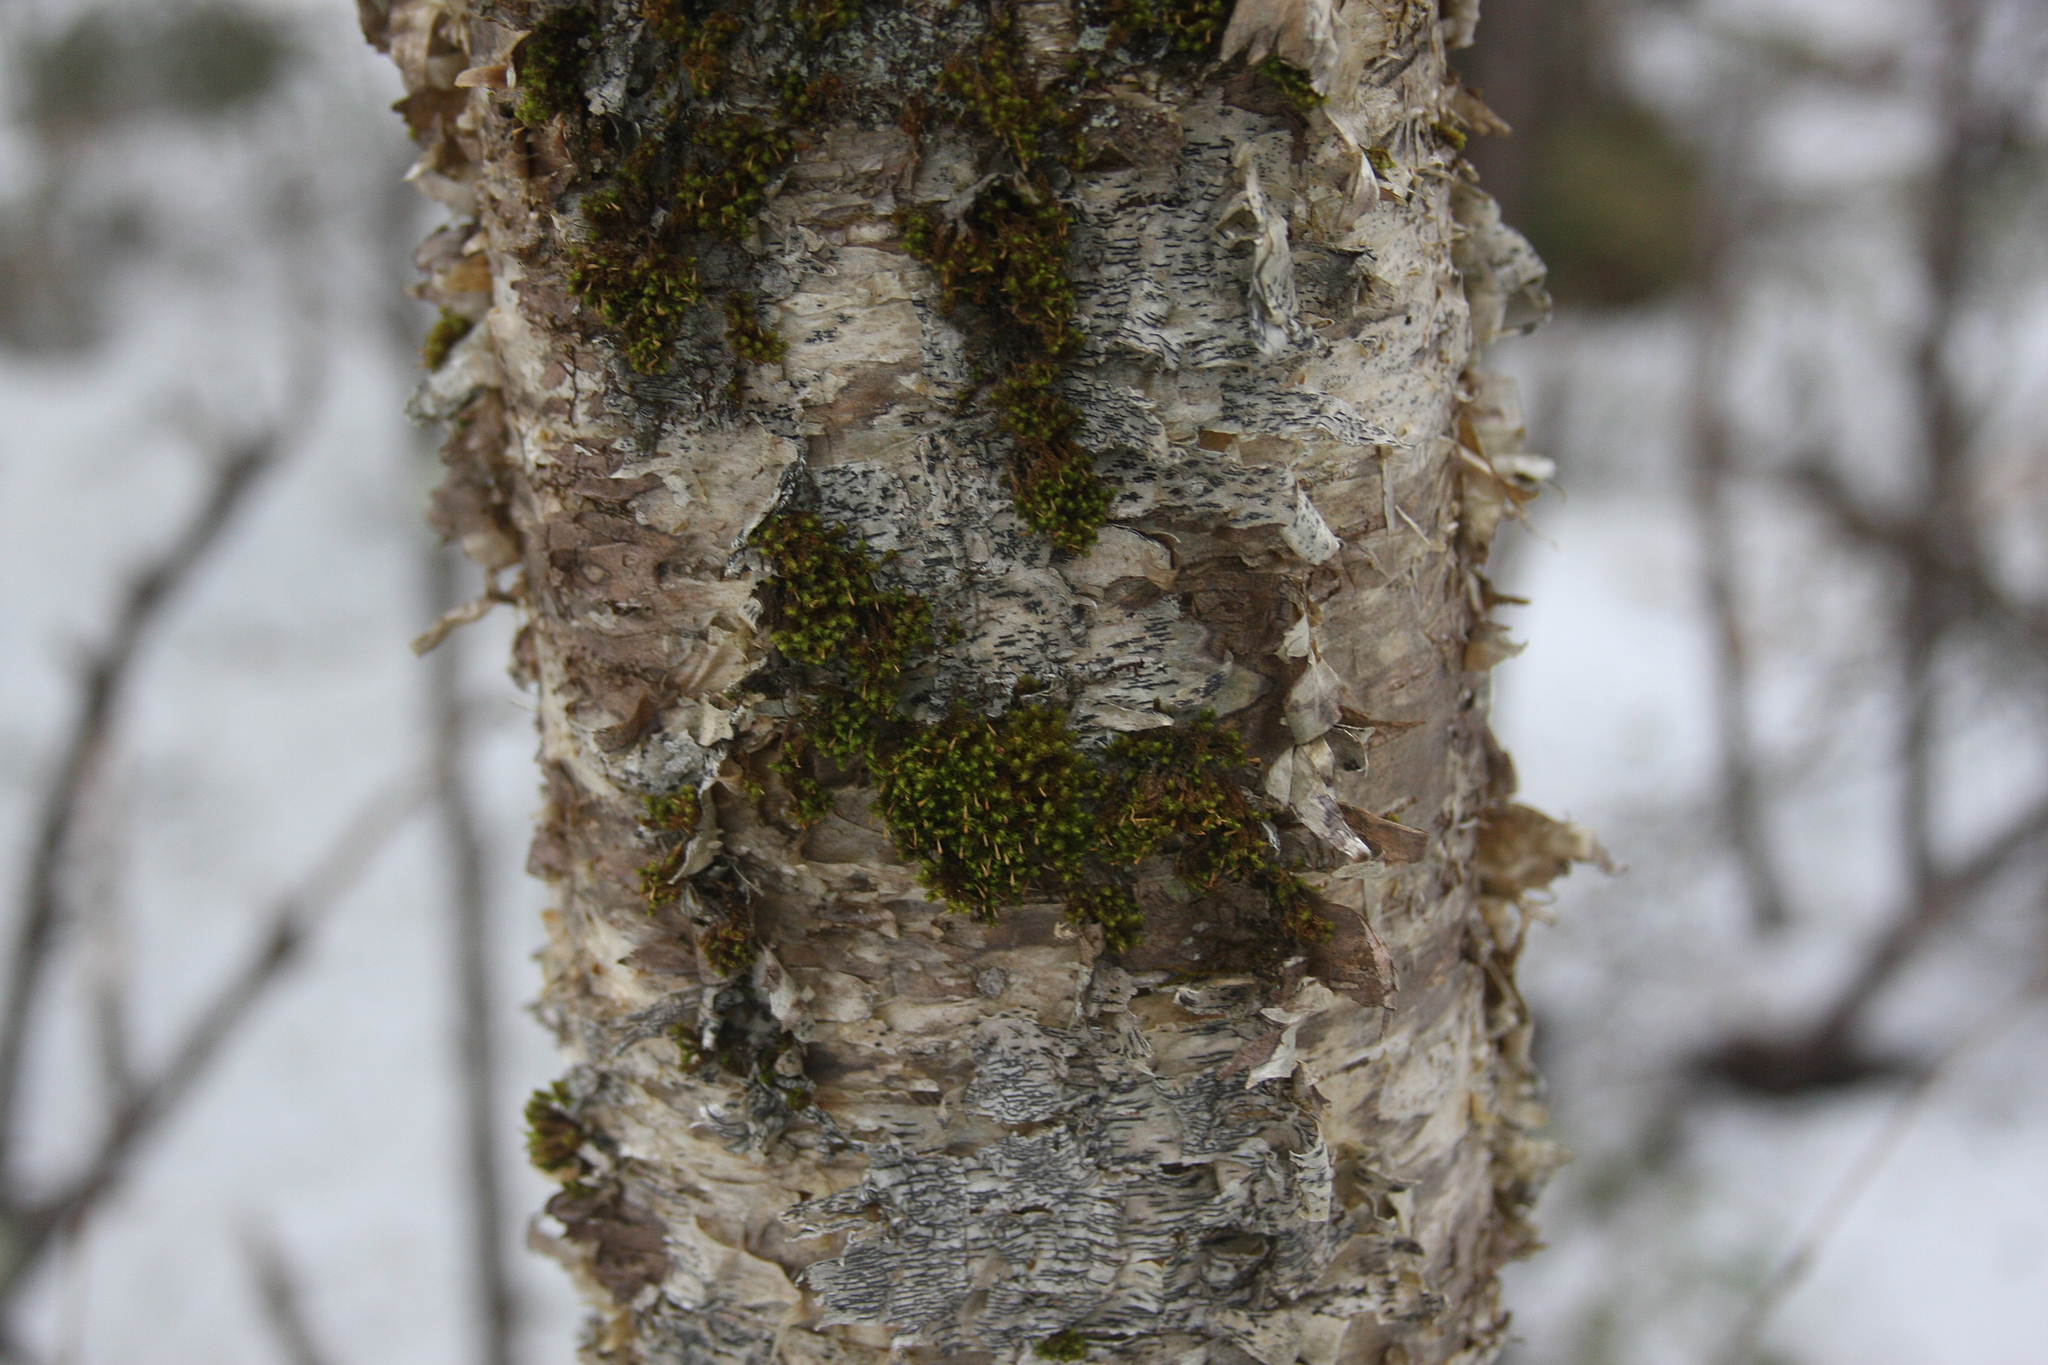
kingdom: Plantae
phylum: Bryophyta
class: Bryopsida
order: Orthotrichales
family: Orthotrichaceae
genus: Ulota
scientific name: Ulota crispa
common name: Crisped pincushion moss
